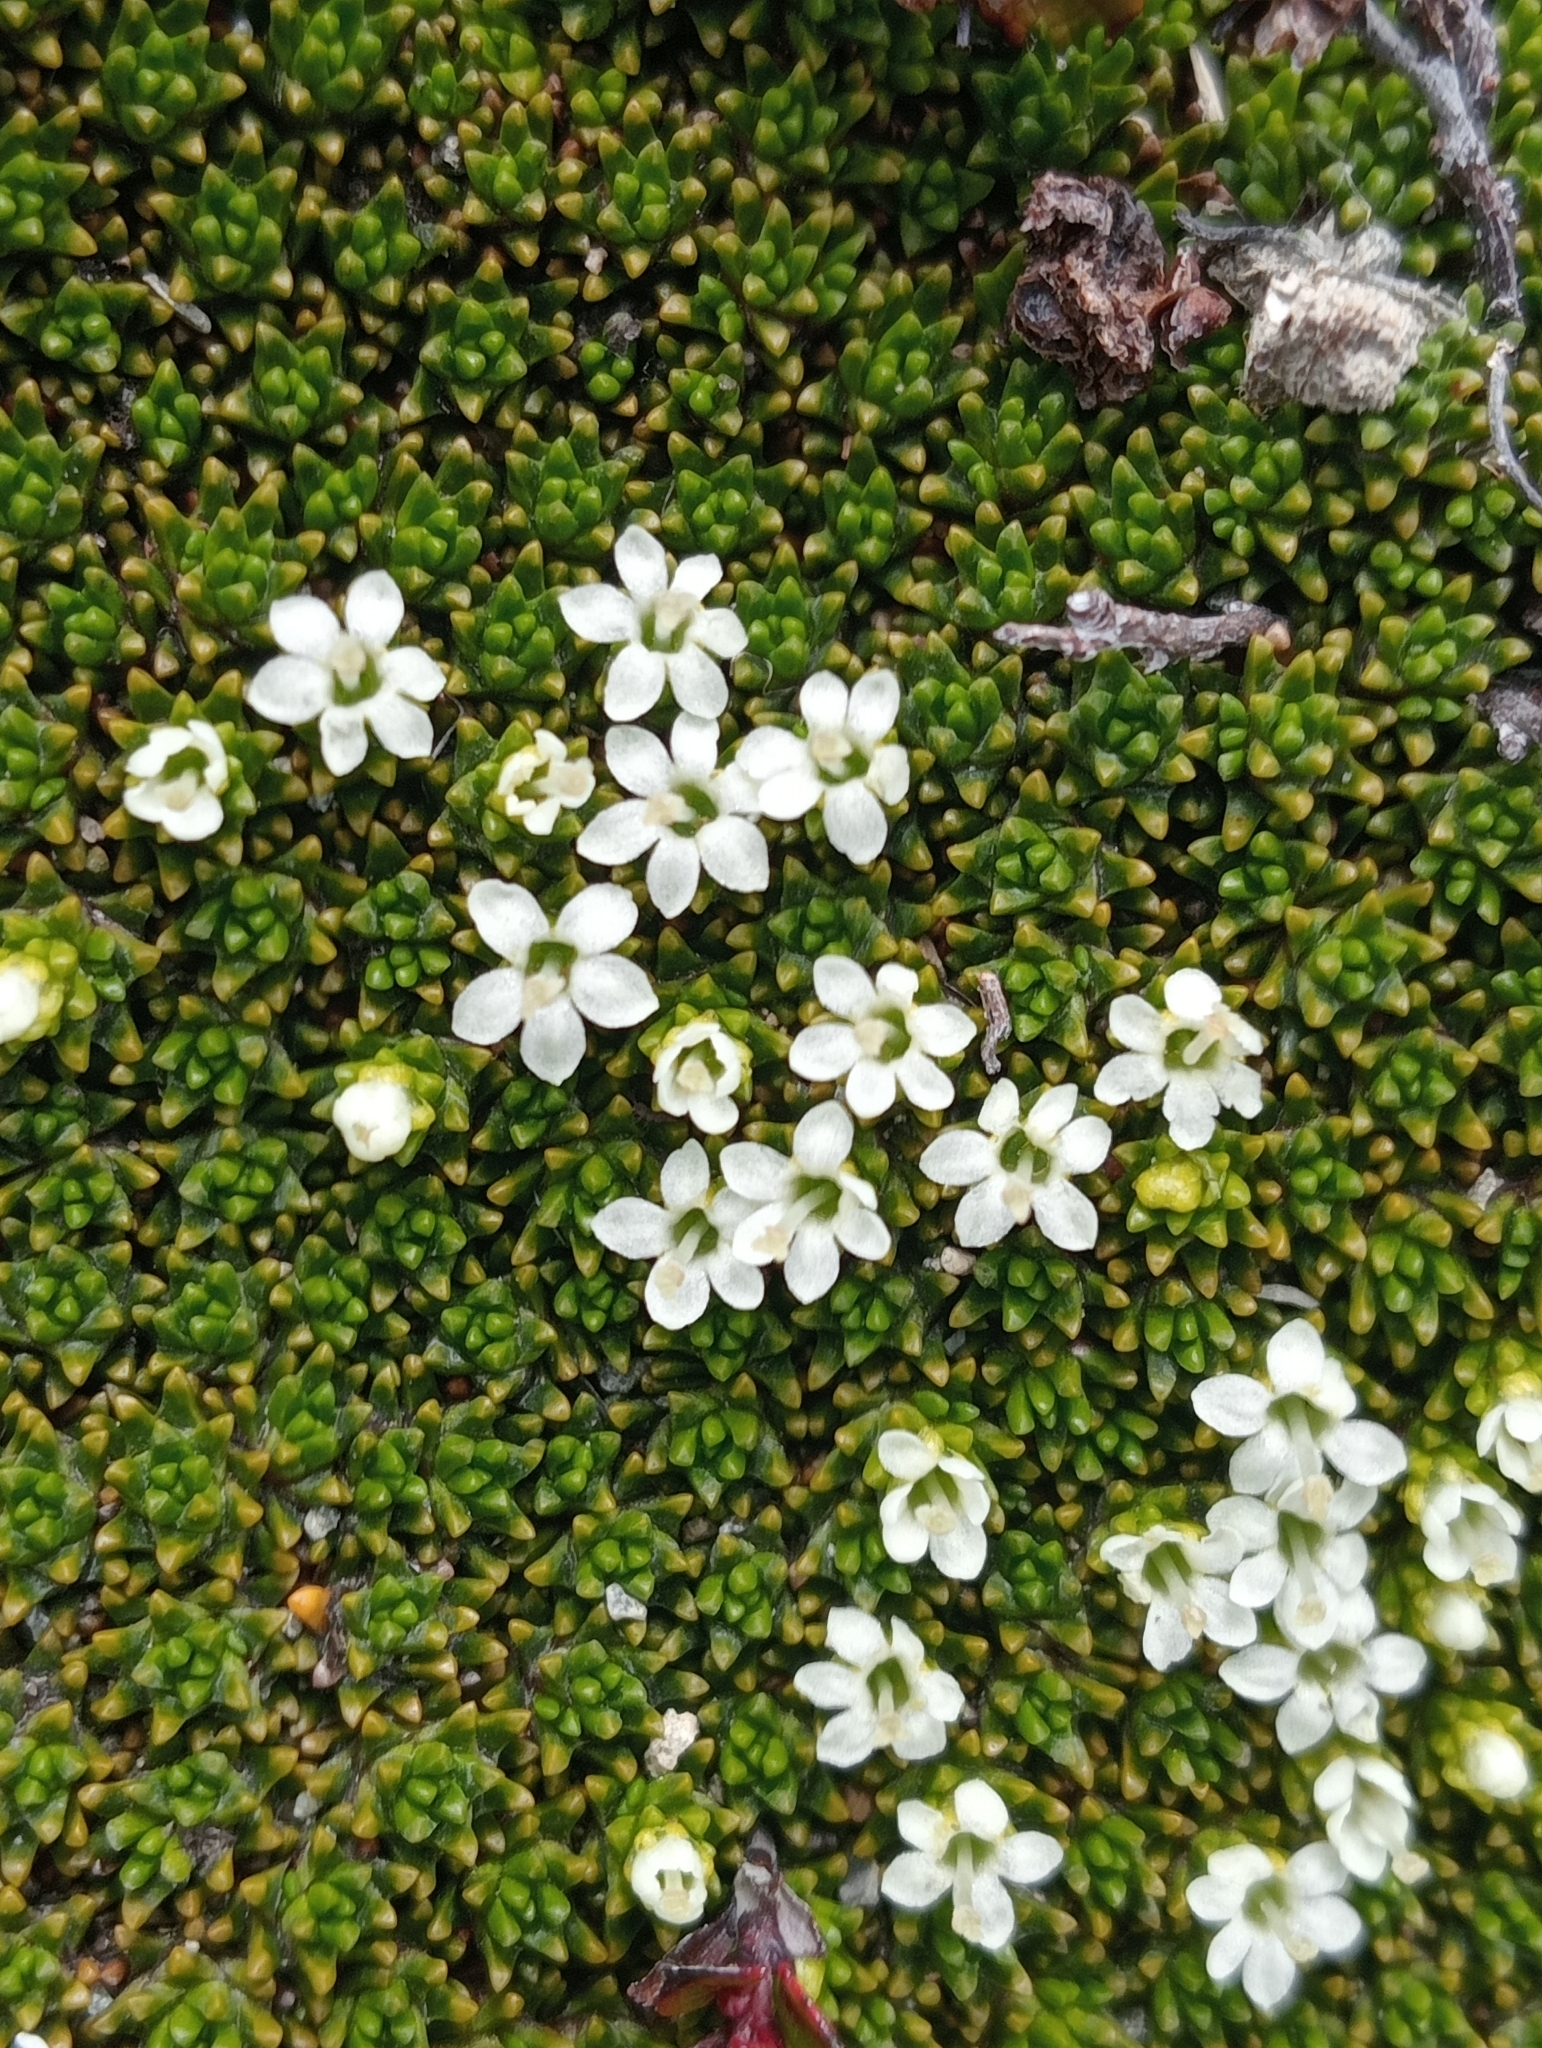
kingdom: Plantae
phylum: Tracheophyta
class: Magnoliopsida
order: Asterales
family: Stylidiaceae
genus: Phyllachne
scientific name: Phyllachne colensoi
